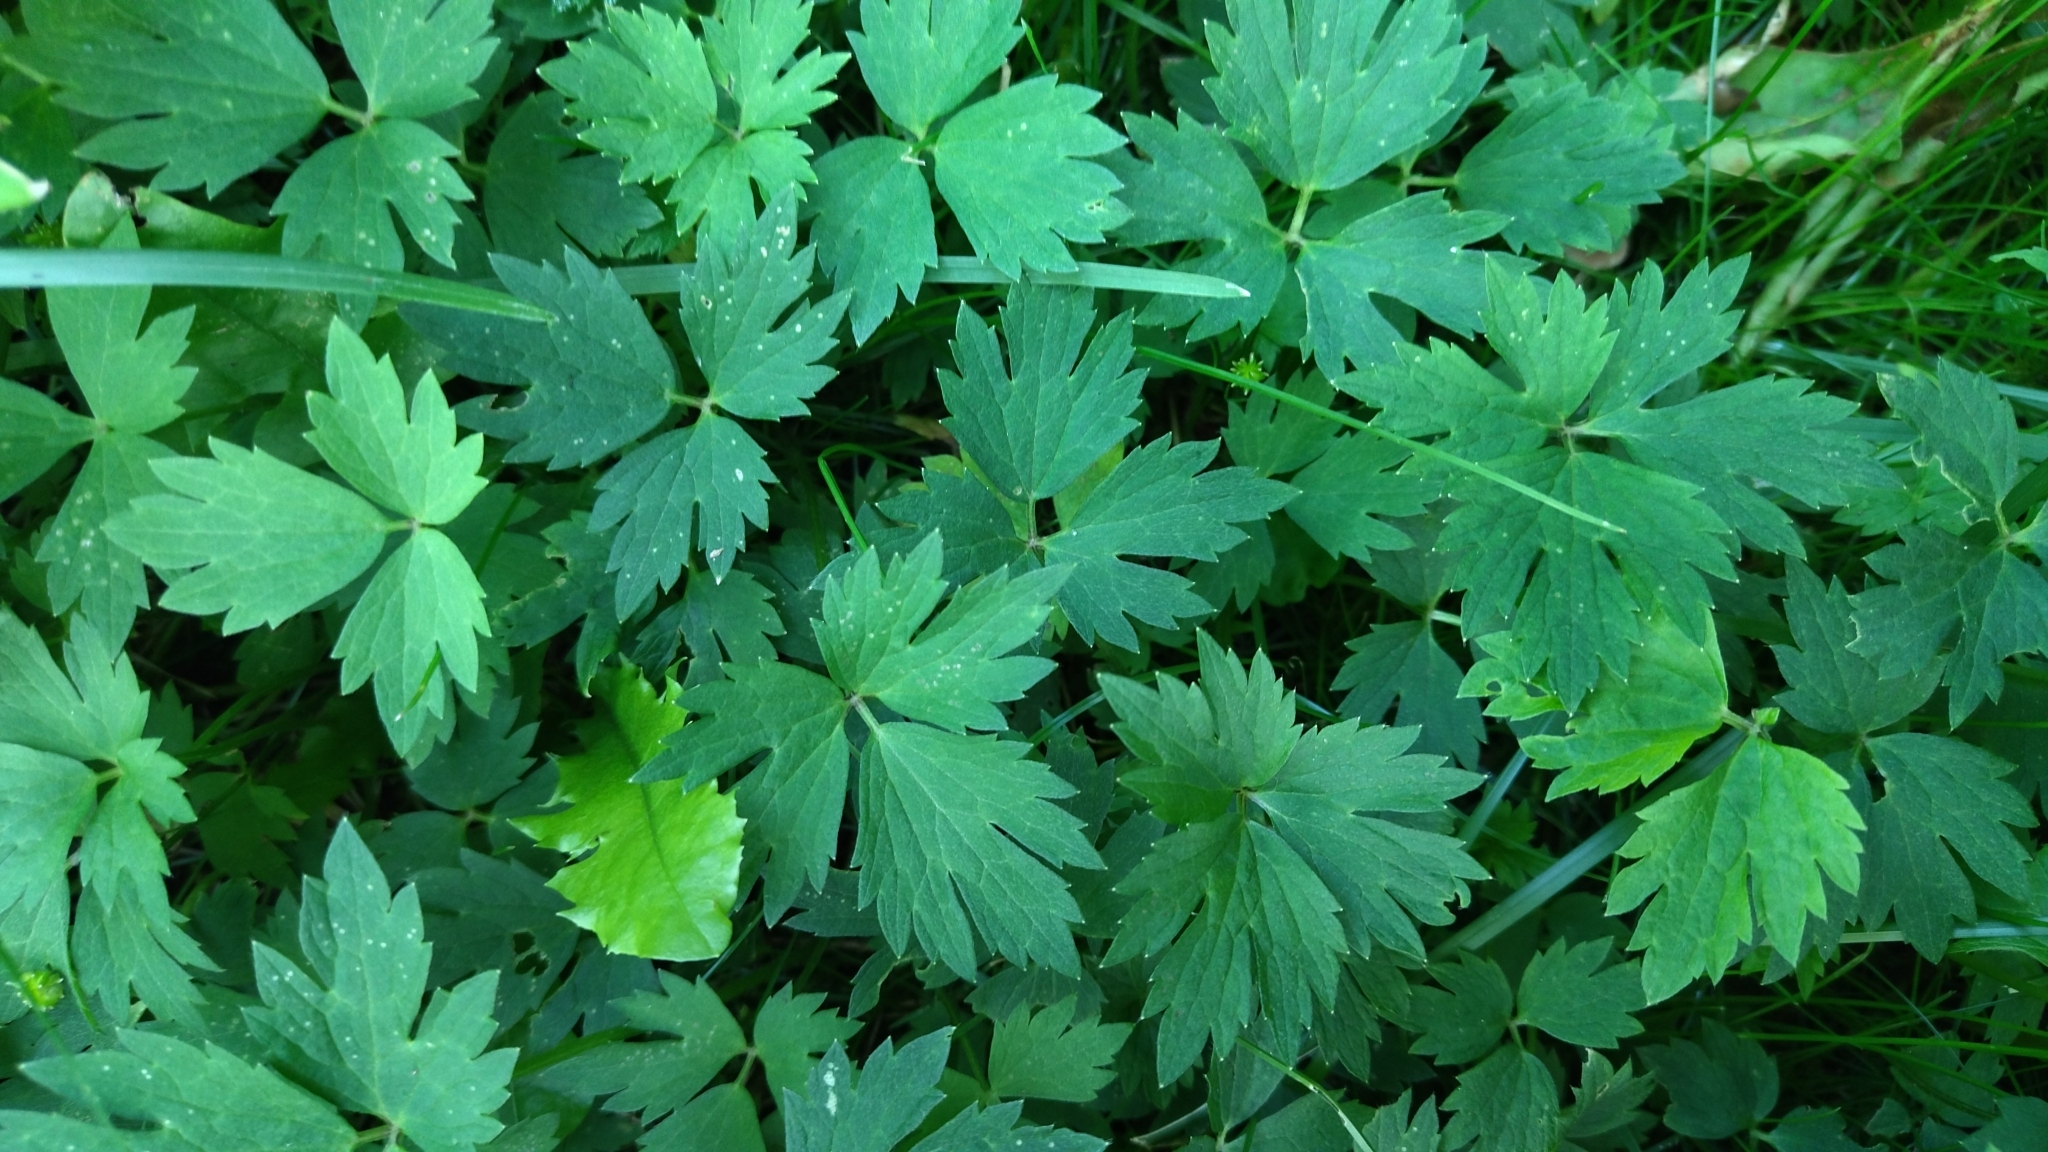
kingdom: Plantae
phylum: Tracheophyta
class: Magnoliopsida
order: Ranunculales
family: Ranunculaceae
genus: Ranunculus
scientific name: Ranunculus repens
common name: Creeping buttercup
